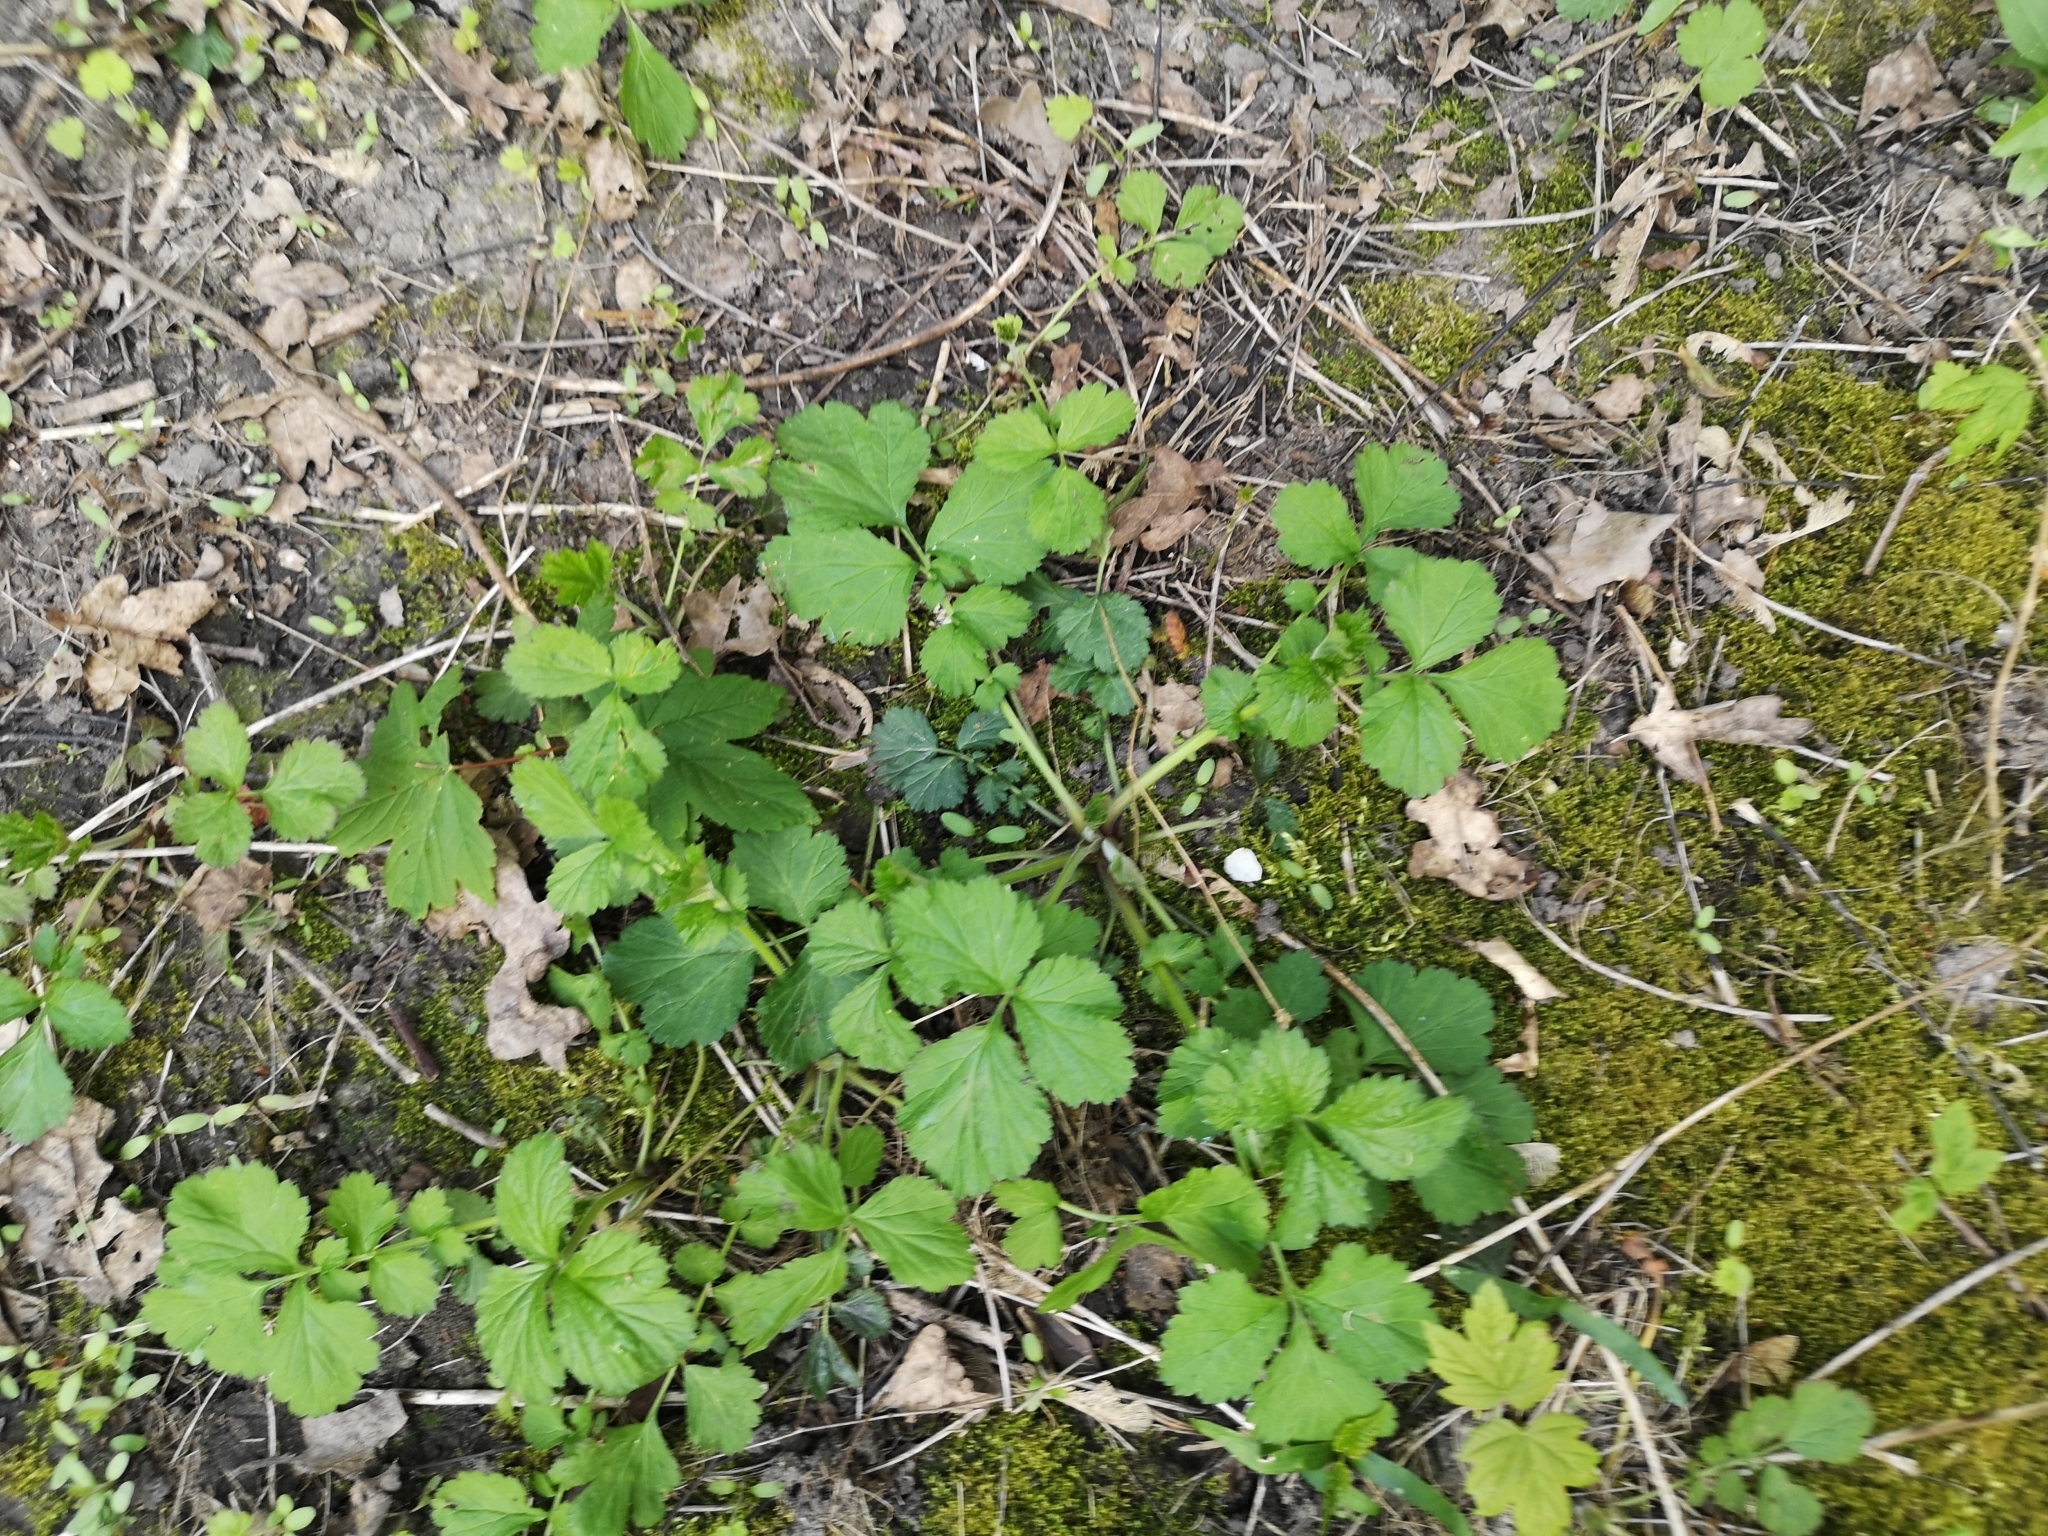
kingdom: Plantae
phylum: Tracheophyta
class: Magnoliopsida
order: Rosales
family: Rosaceae
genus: Geum
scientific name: Geum urbanum
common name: Wood avens
